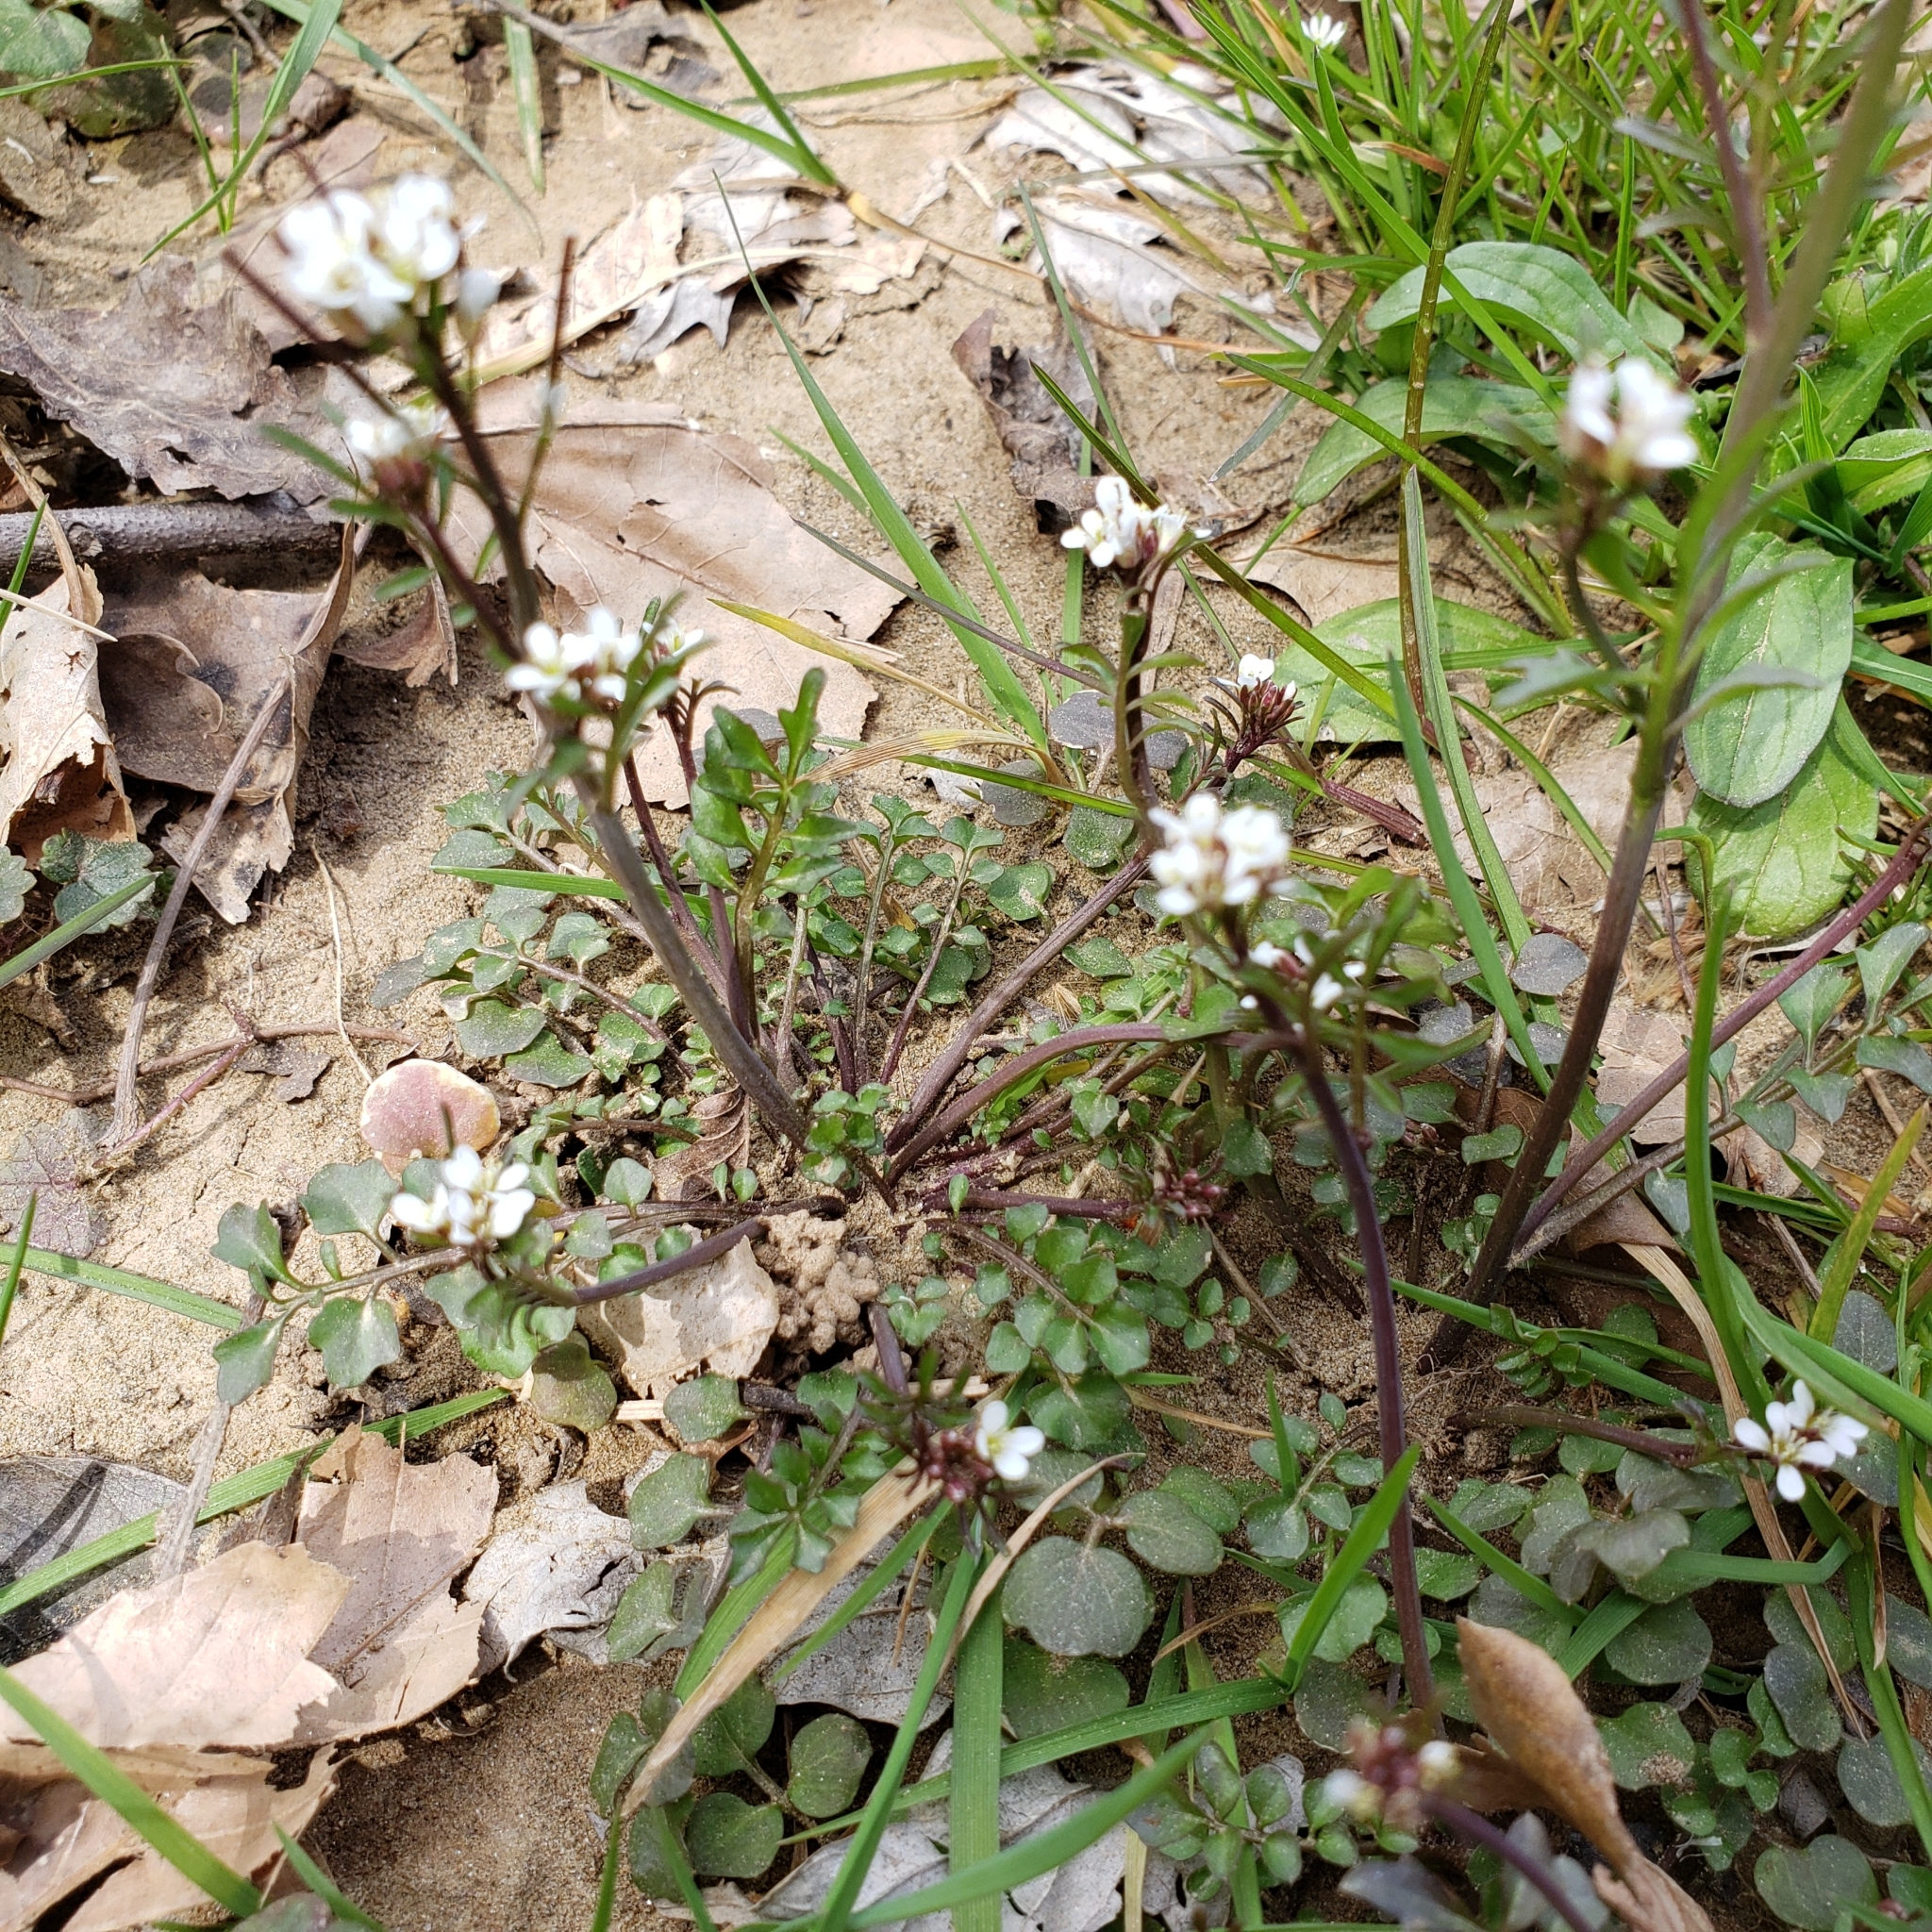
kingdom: Plantae
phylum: Tracheophyta
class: Magnoliopsida
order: Brassicales
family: Brassicaceae
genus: Cardamine
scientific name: Cardamine hirsuta
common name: Hairy bittercress
